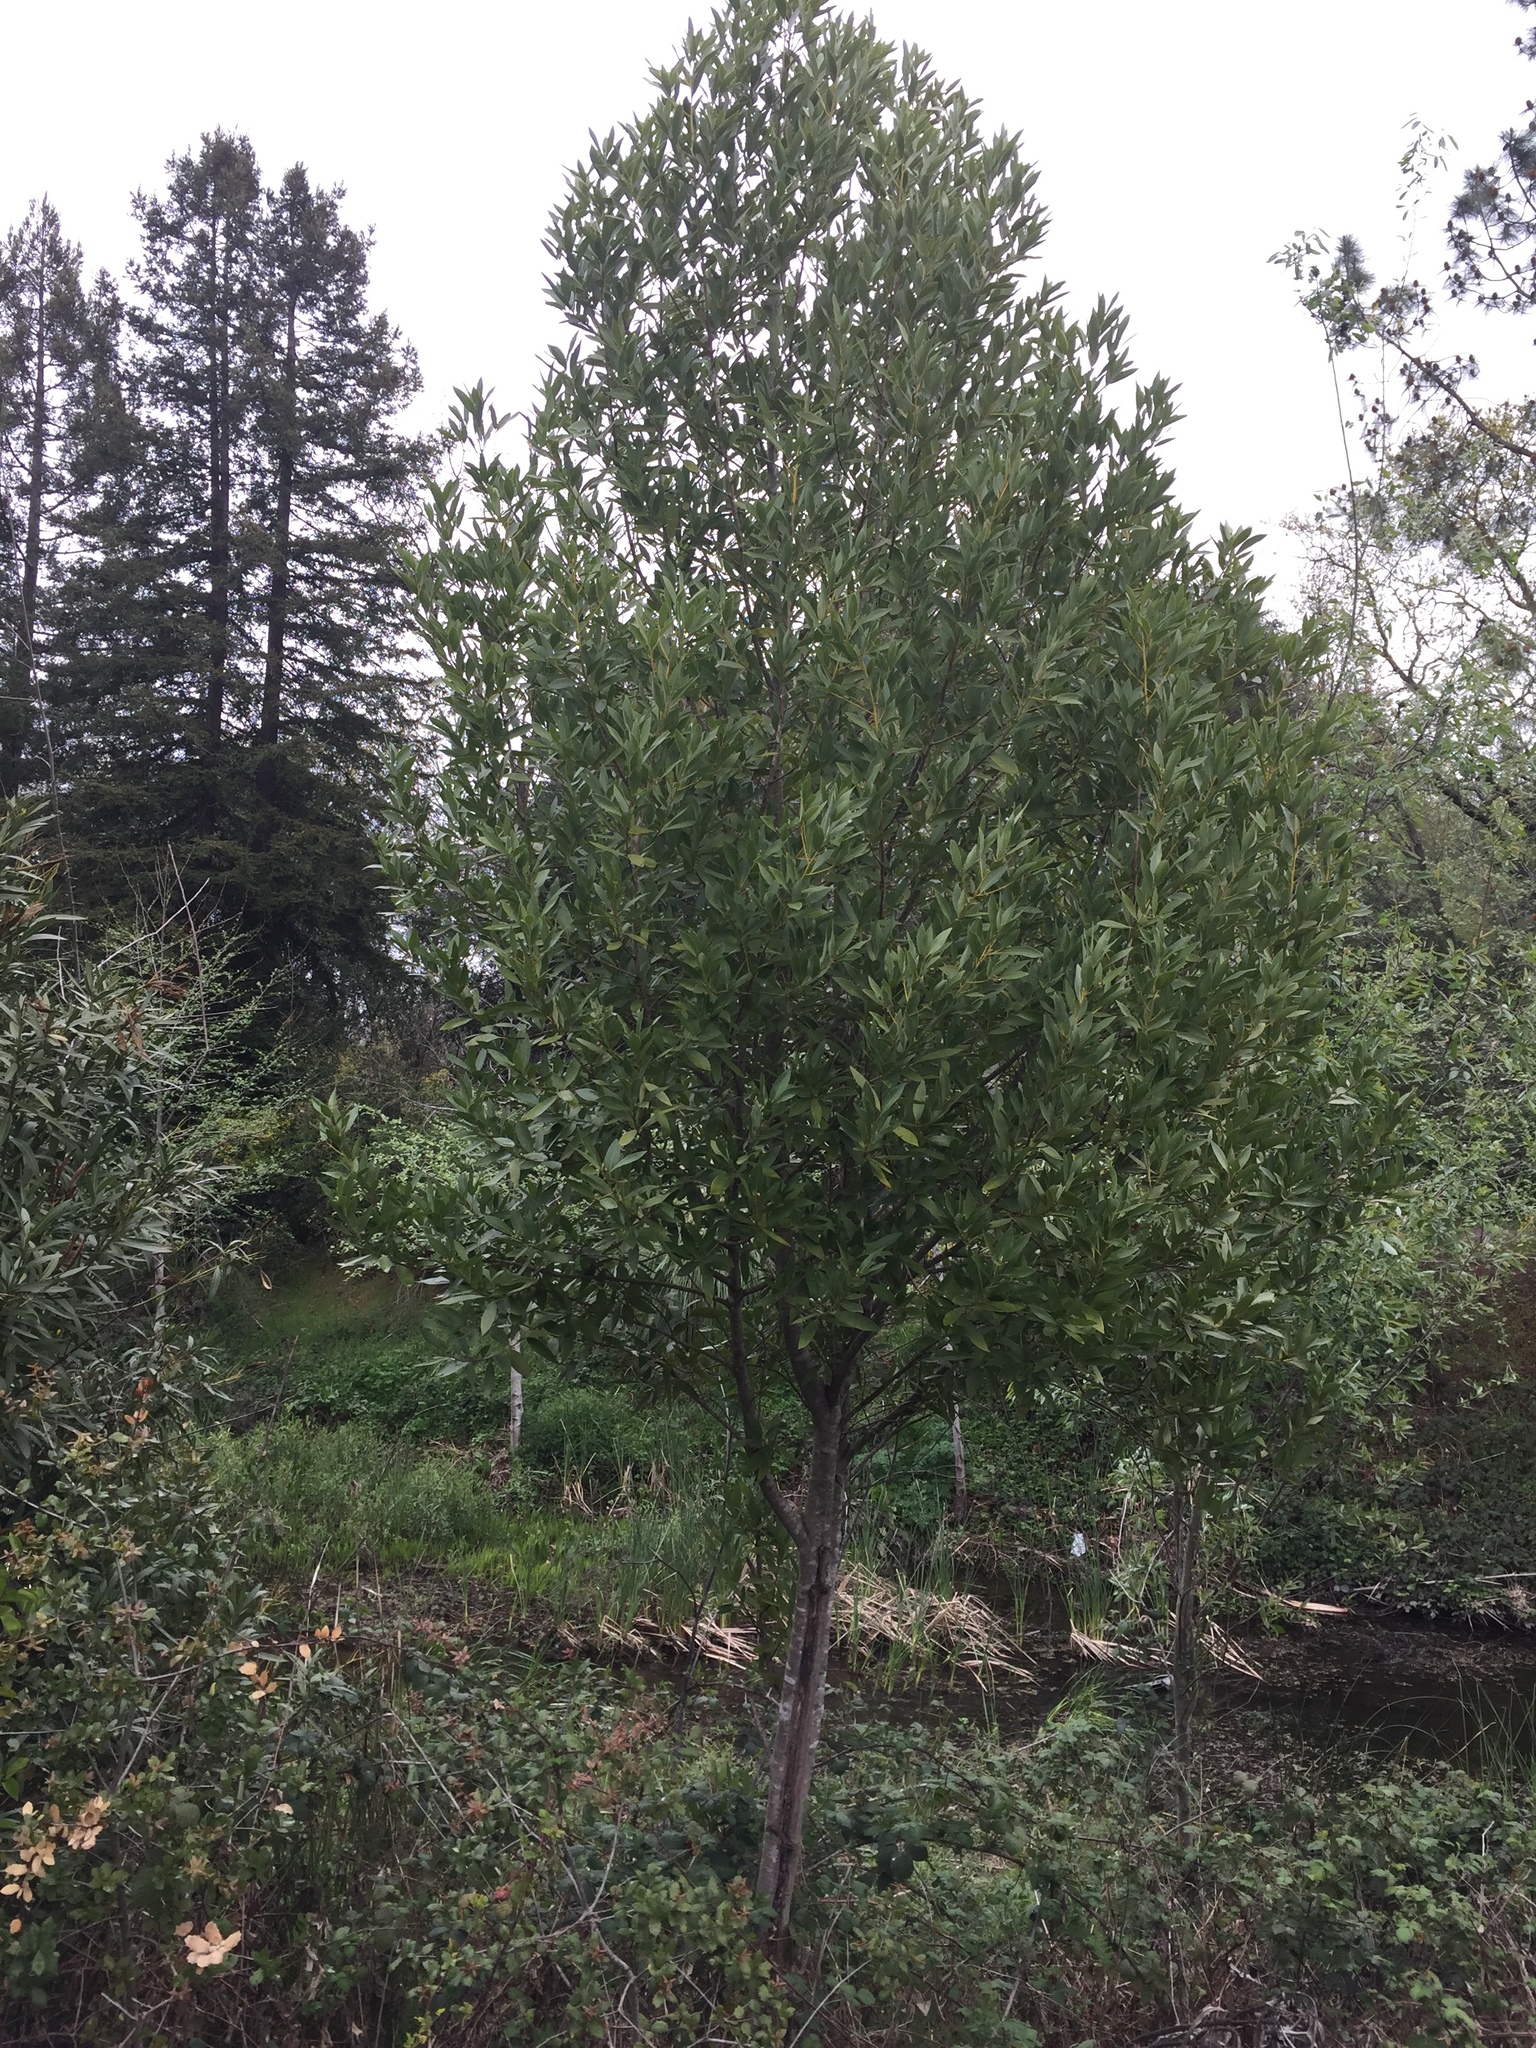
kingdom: Plantae
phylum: Tracheophyta
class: Magnoliopsida
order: Laurales
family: Lauraceae
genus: Umbellularia
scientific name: Umbellularia californica
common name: California bay
